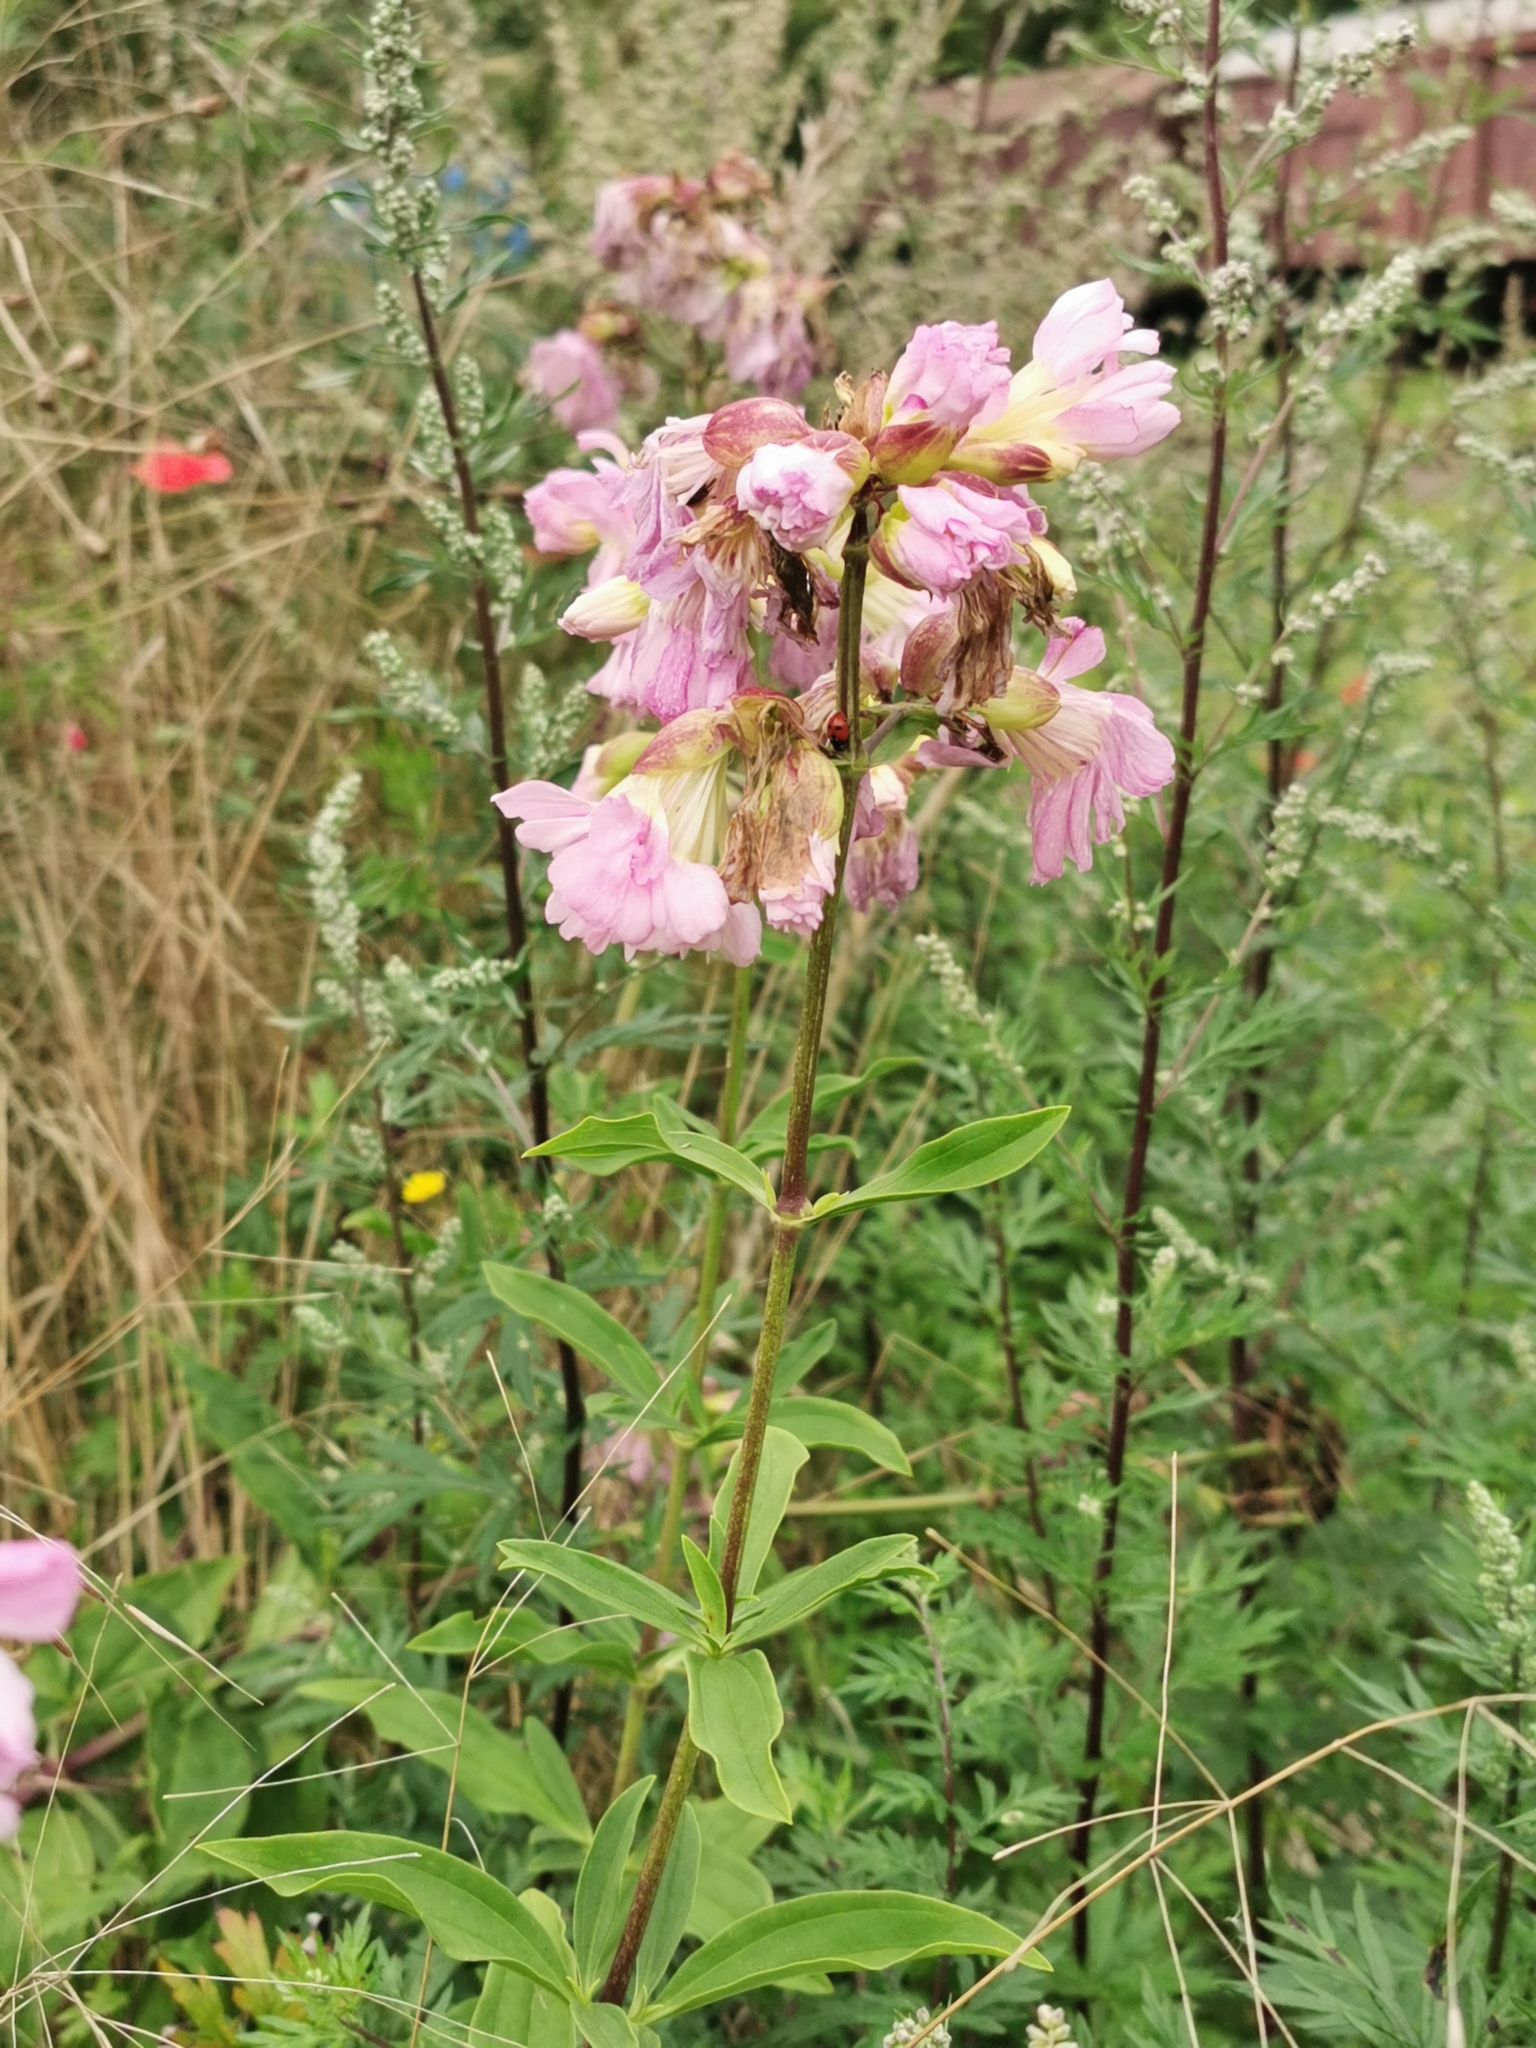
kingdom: Plantae
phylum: Tracheophyta
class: Magnoliopsida
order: Caryophyllales
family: Caryophyllaceae
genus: Saponaria
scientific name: Saponaria officinalis
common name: Soapwort
